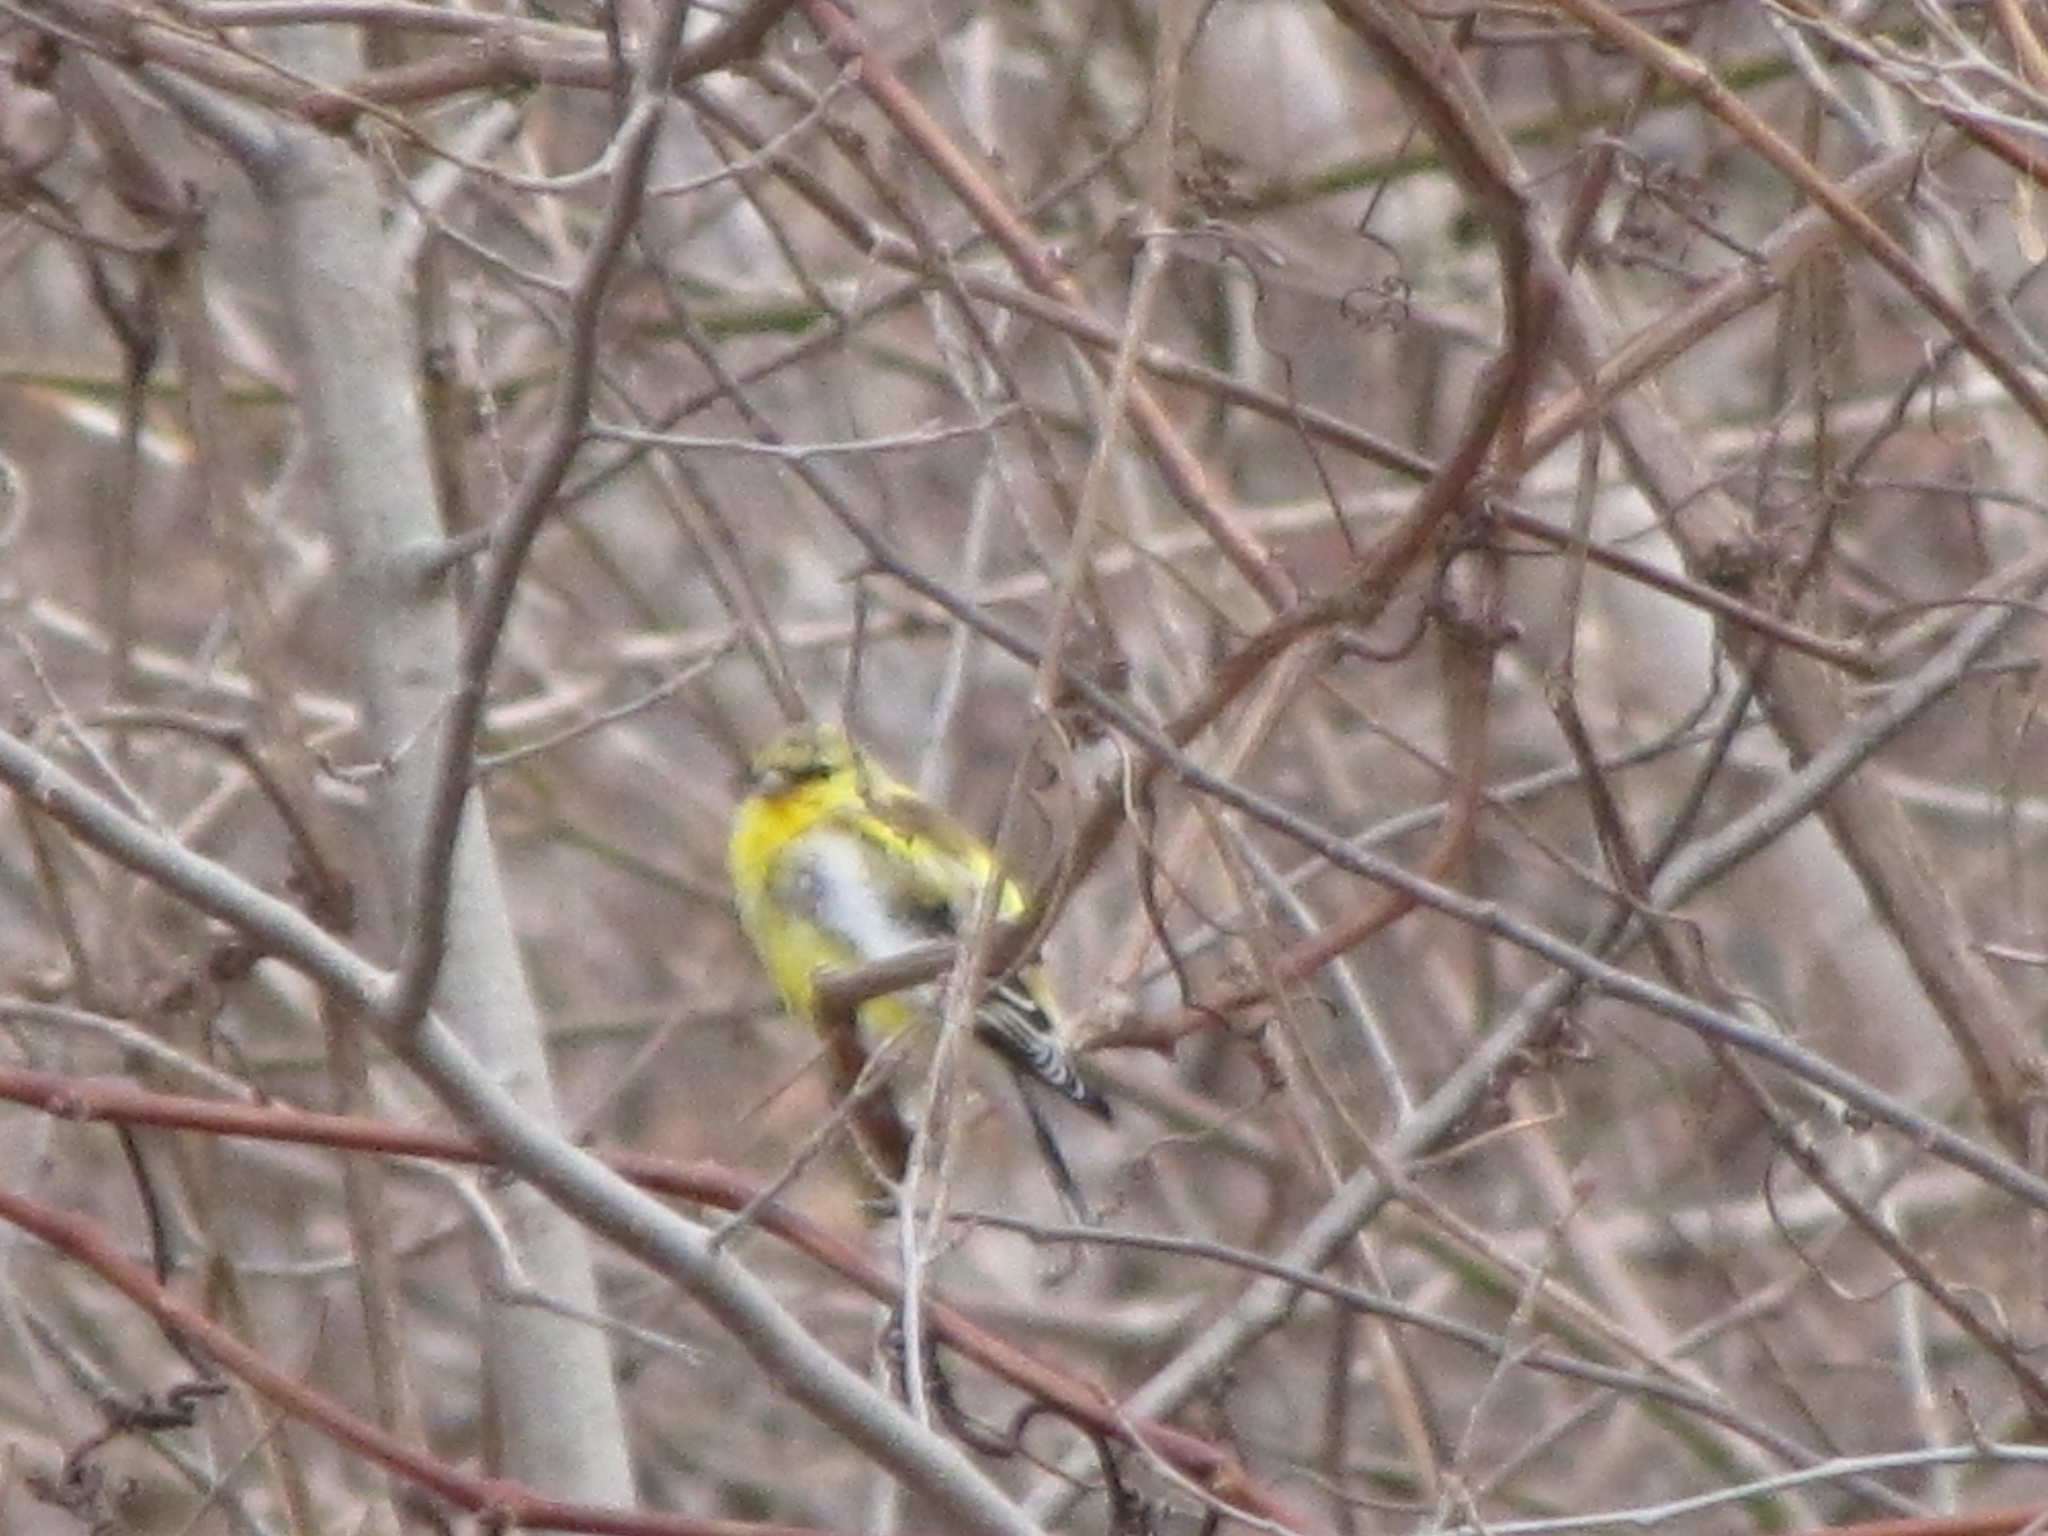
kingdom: Animalia
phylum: Chordata
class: Aves
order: Passeriformes
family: Fringillidae
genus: Spinus
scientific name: Spinus tristis
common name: American goldfinch
